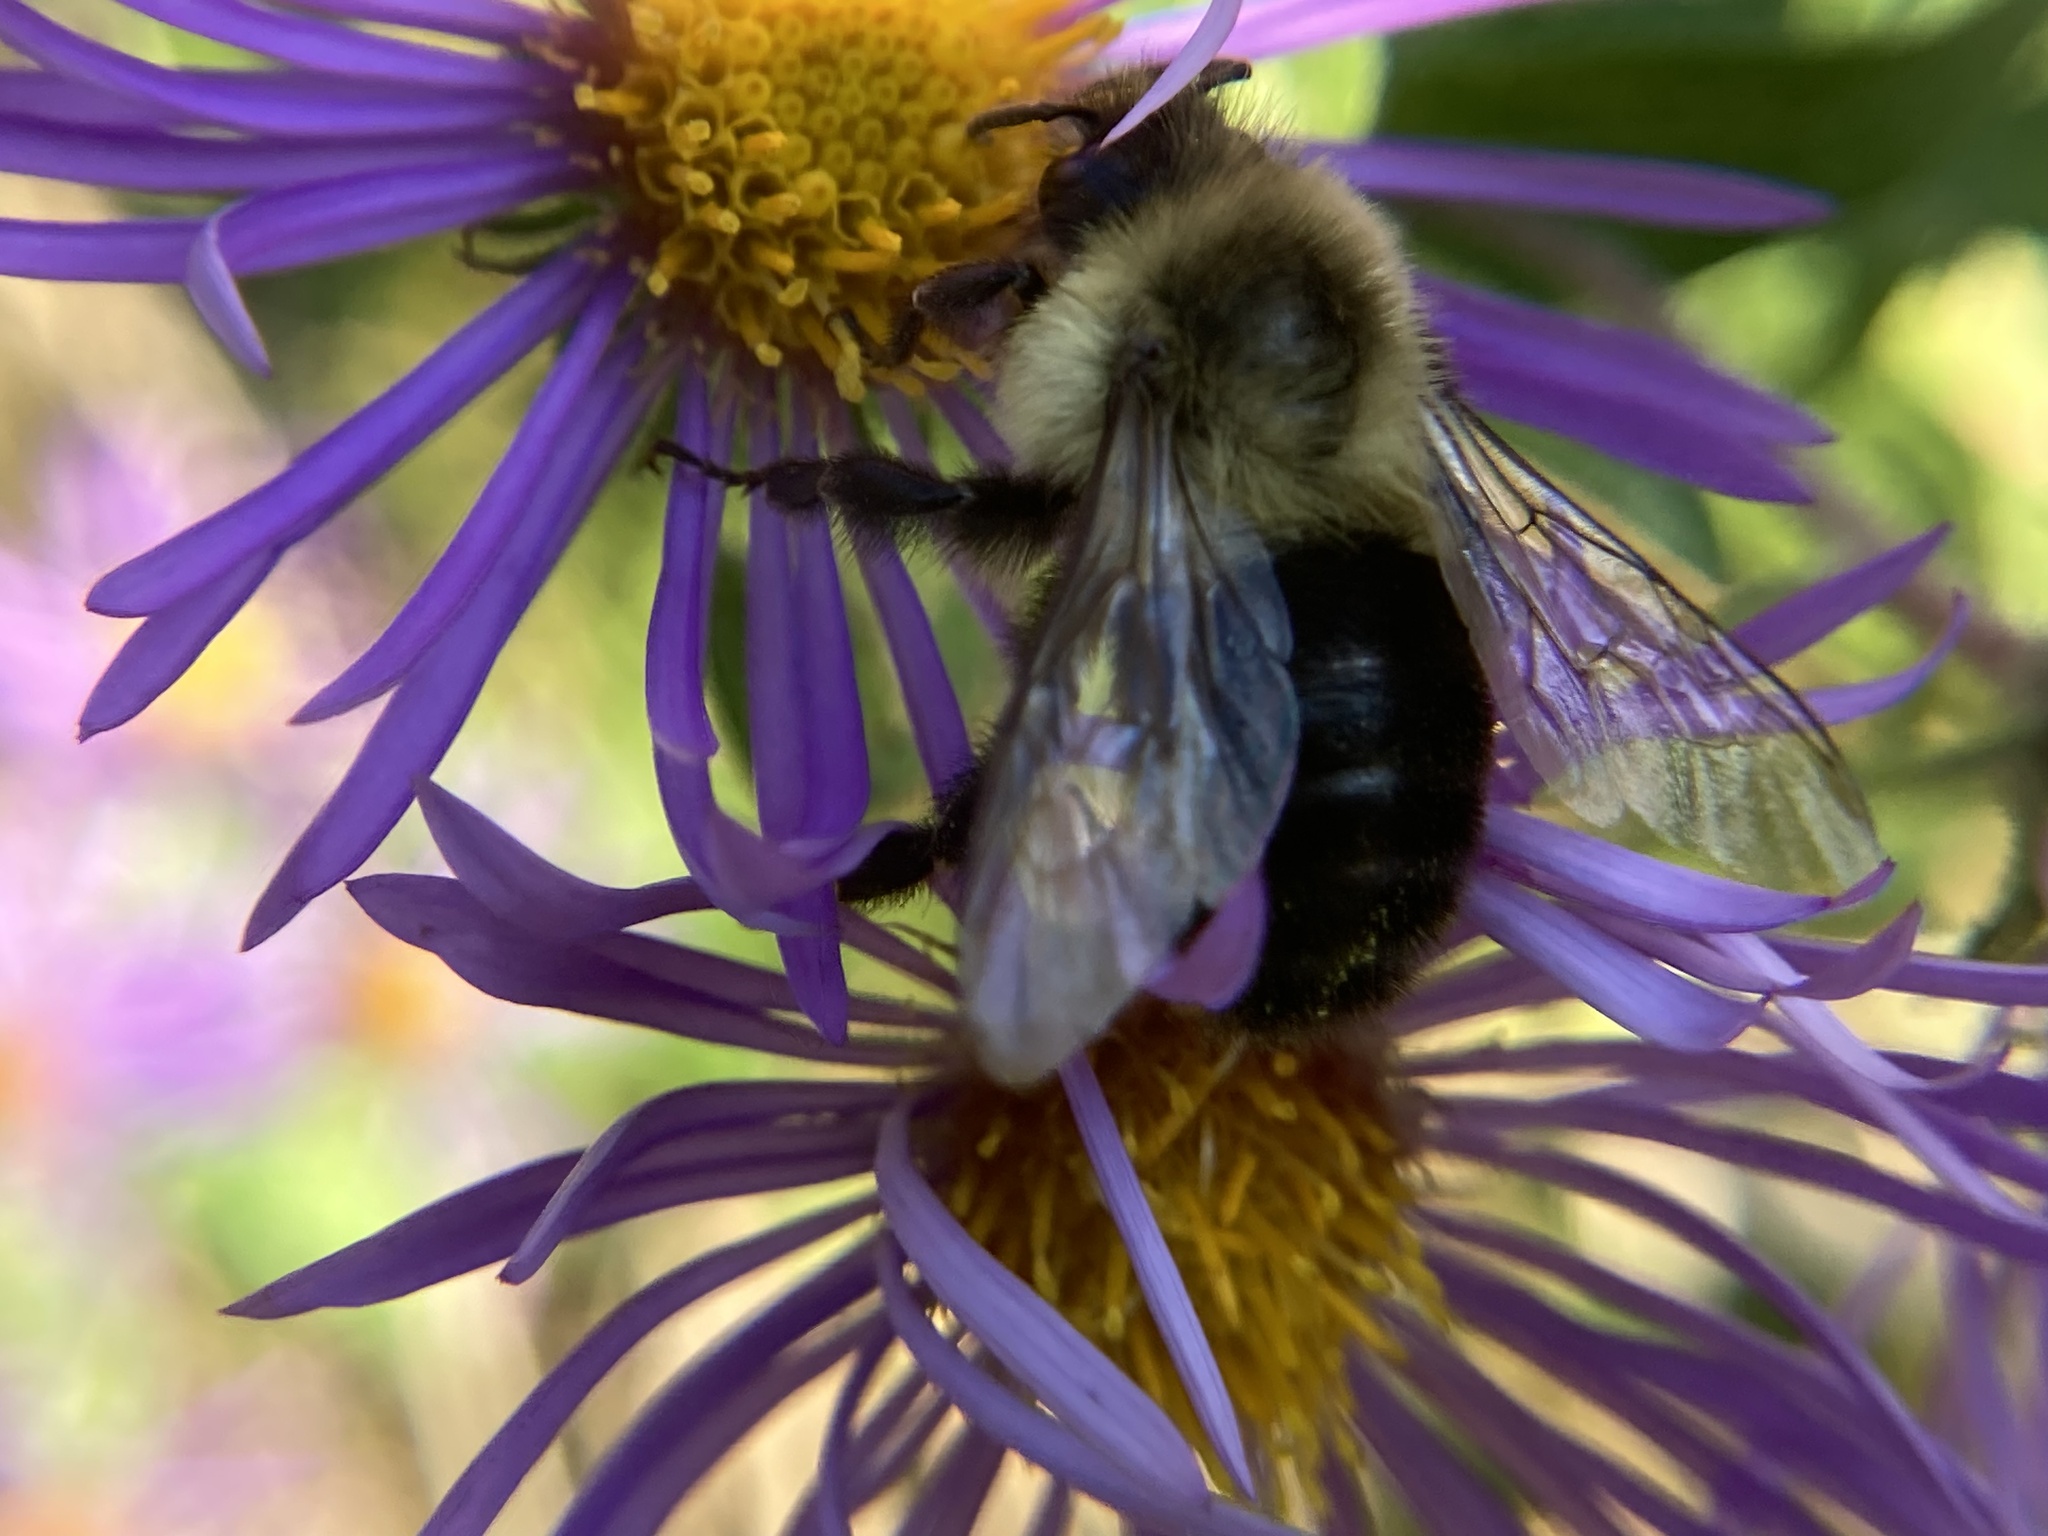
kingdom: Animalia
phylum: Arthropoda
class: Insecta
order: Hymenoptera
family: Apidae
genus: Bombus
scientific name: Bombus impatiens
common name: Common eastern bumble bee
